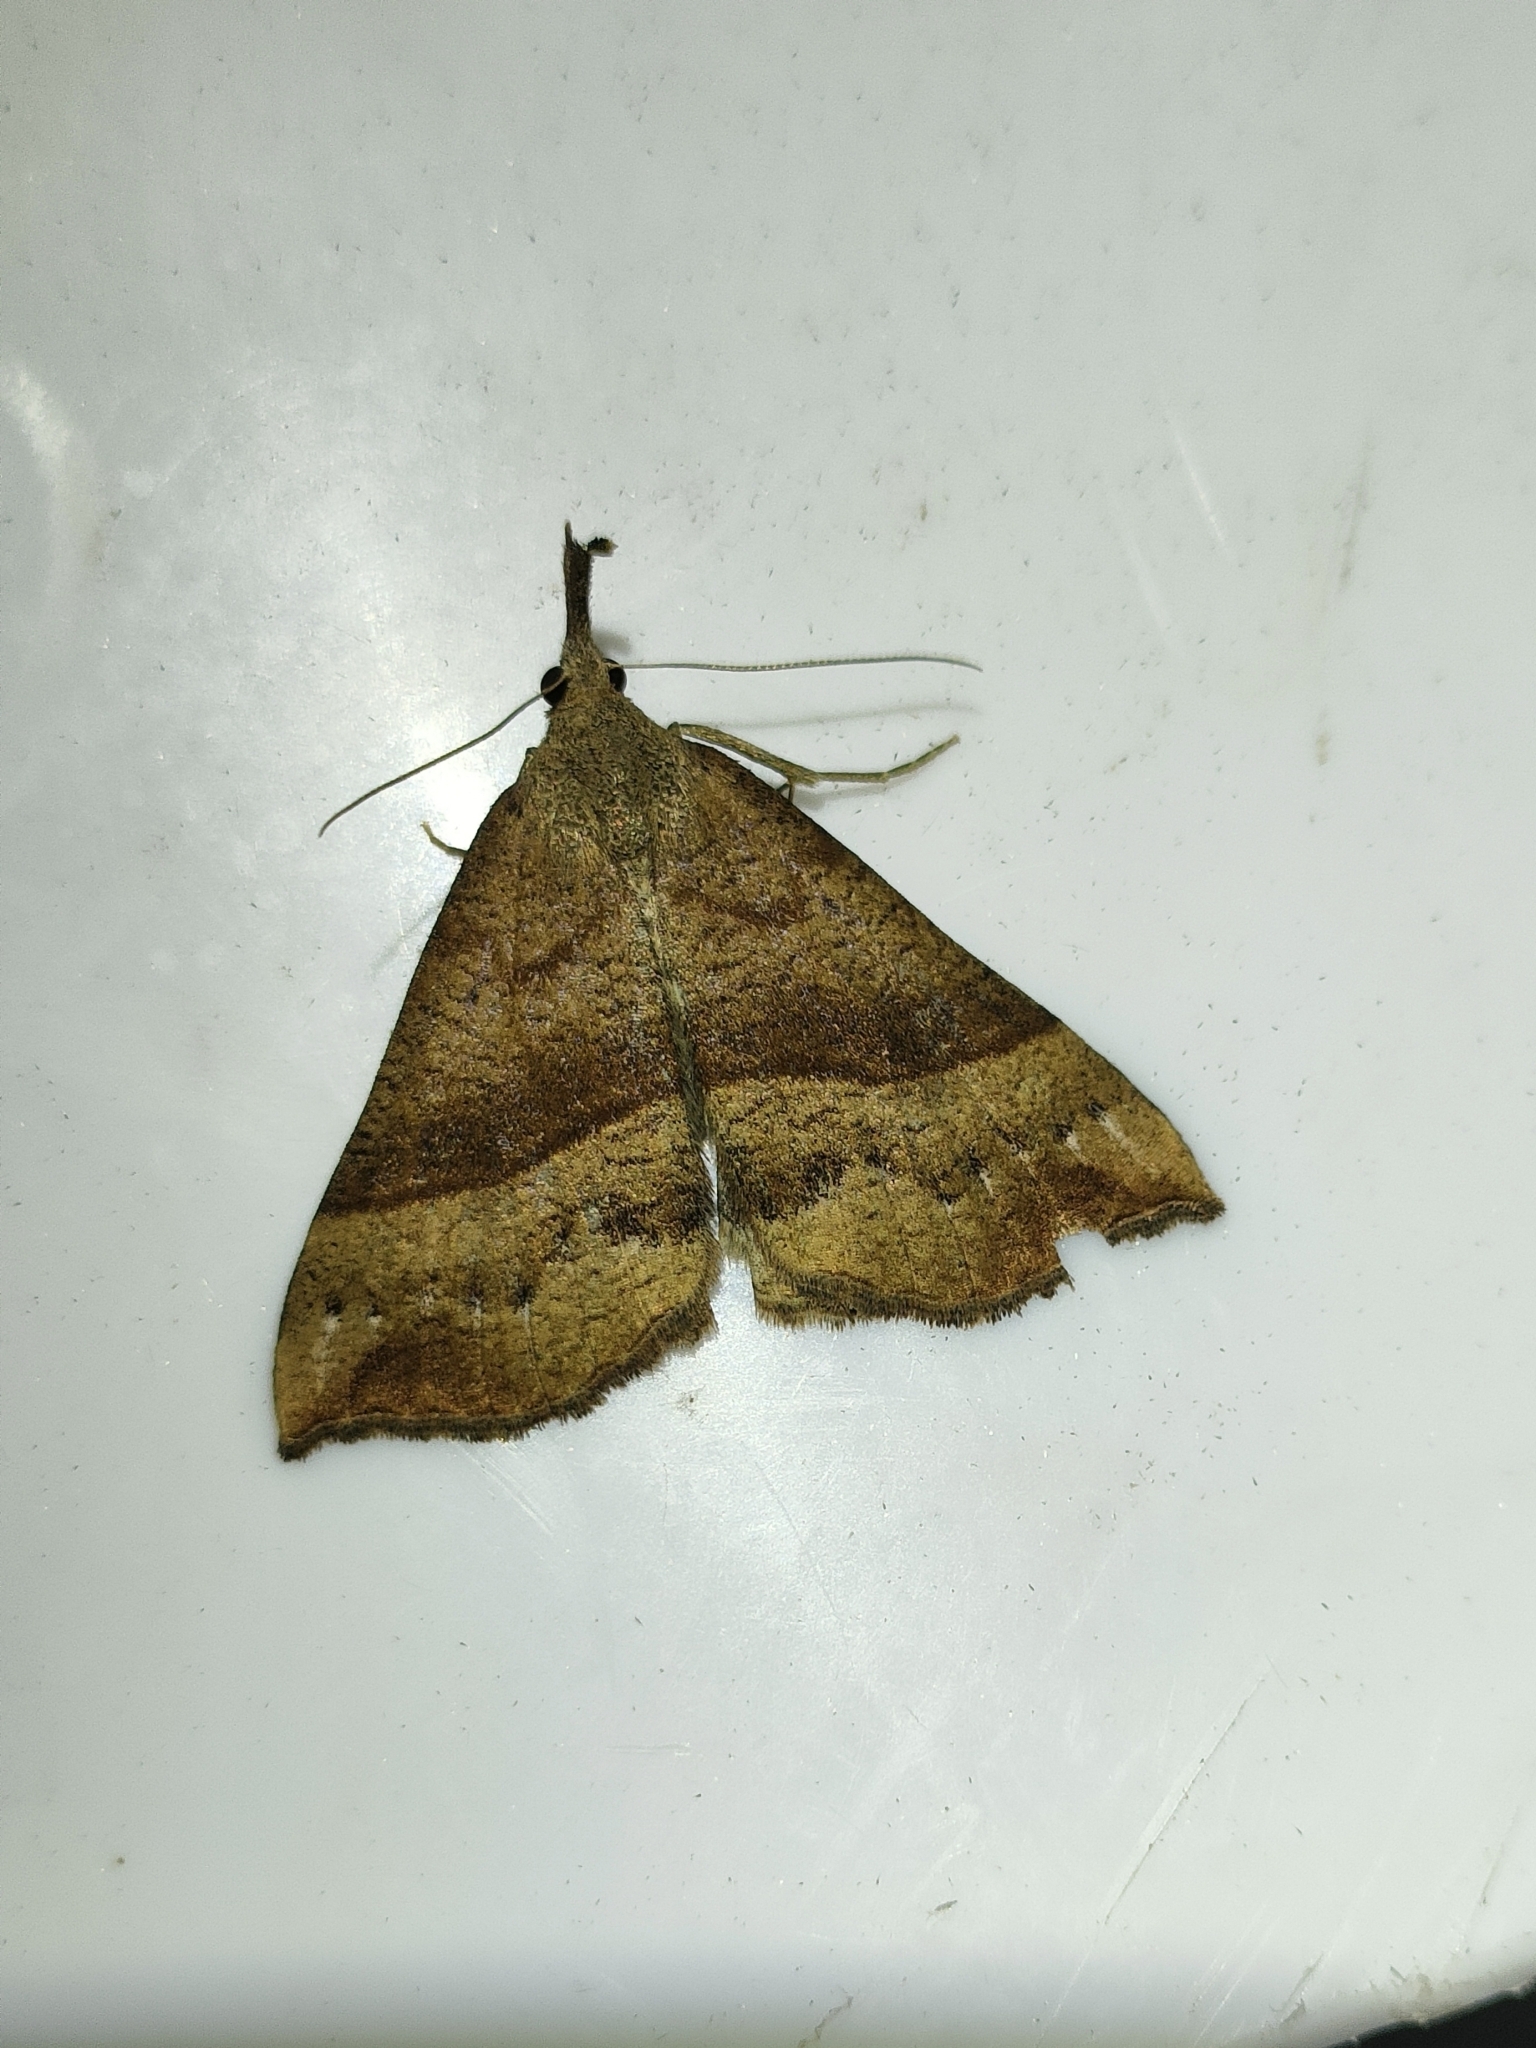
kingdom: Animalia
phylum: Arthropoda
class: Insecta
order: Lepidoptera
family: Erebidae
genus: Hypena
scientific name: Hypena proboscidalis
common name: Snout
